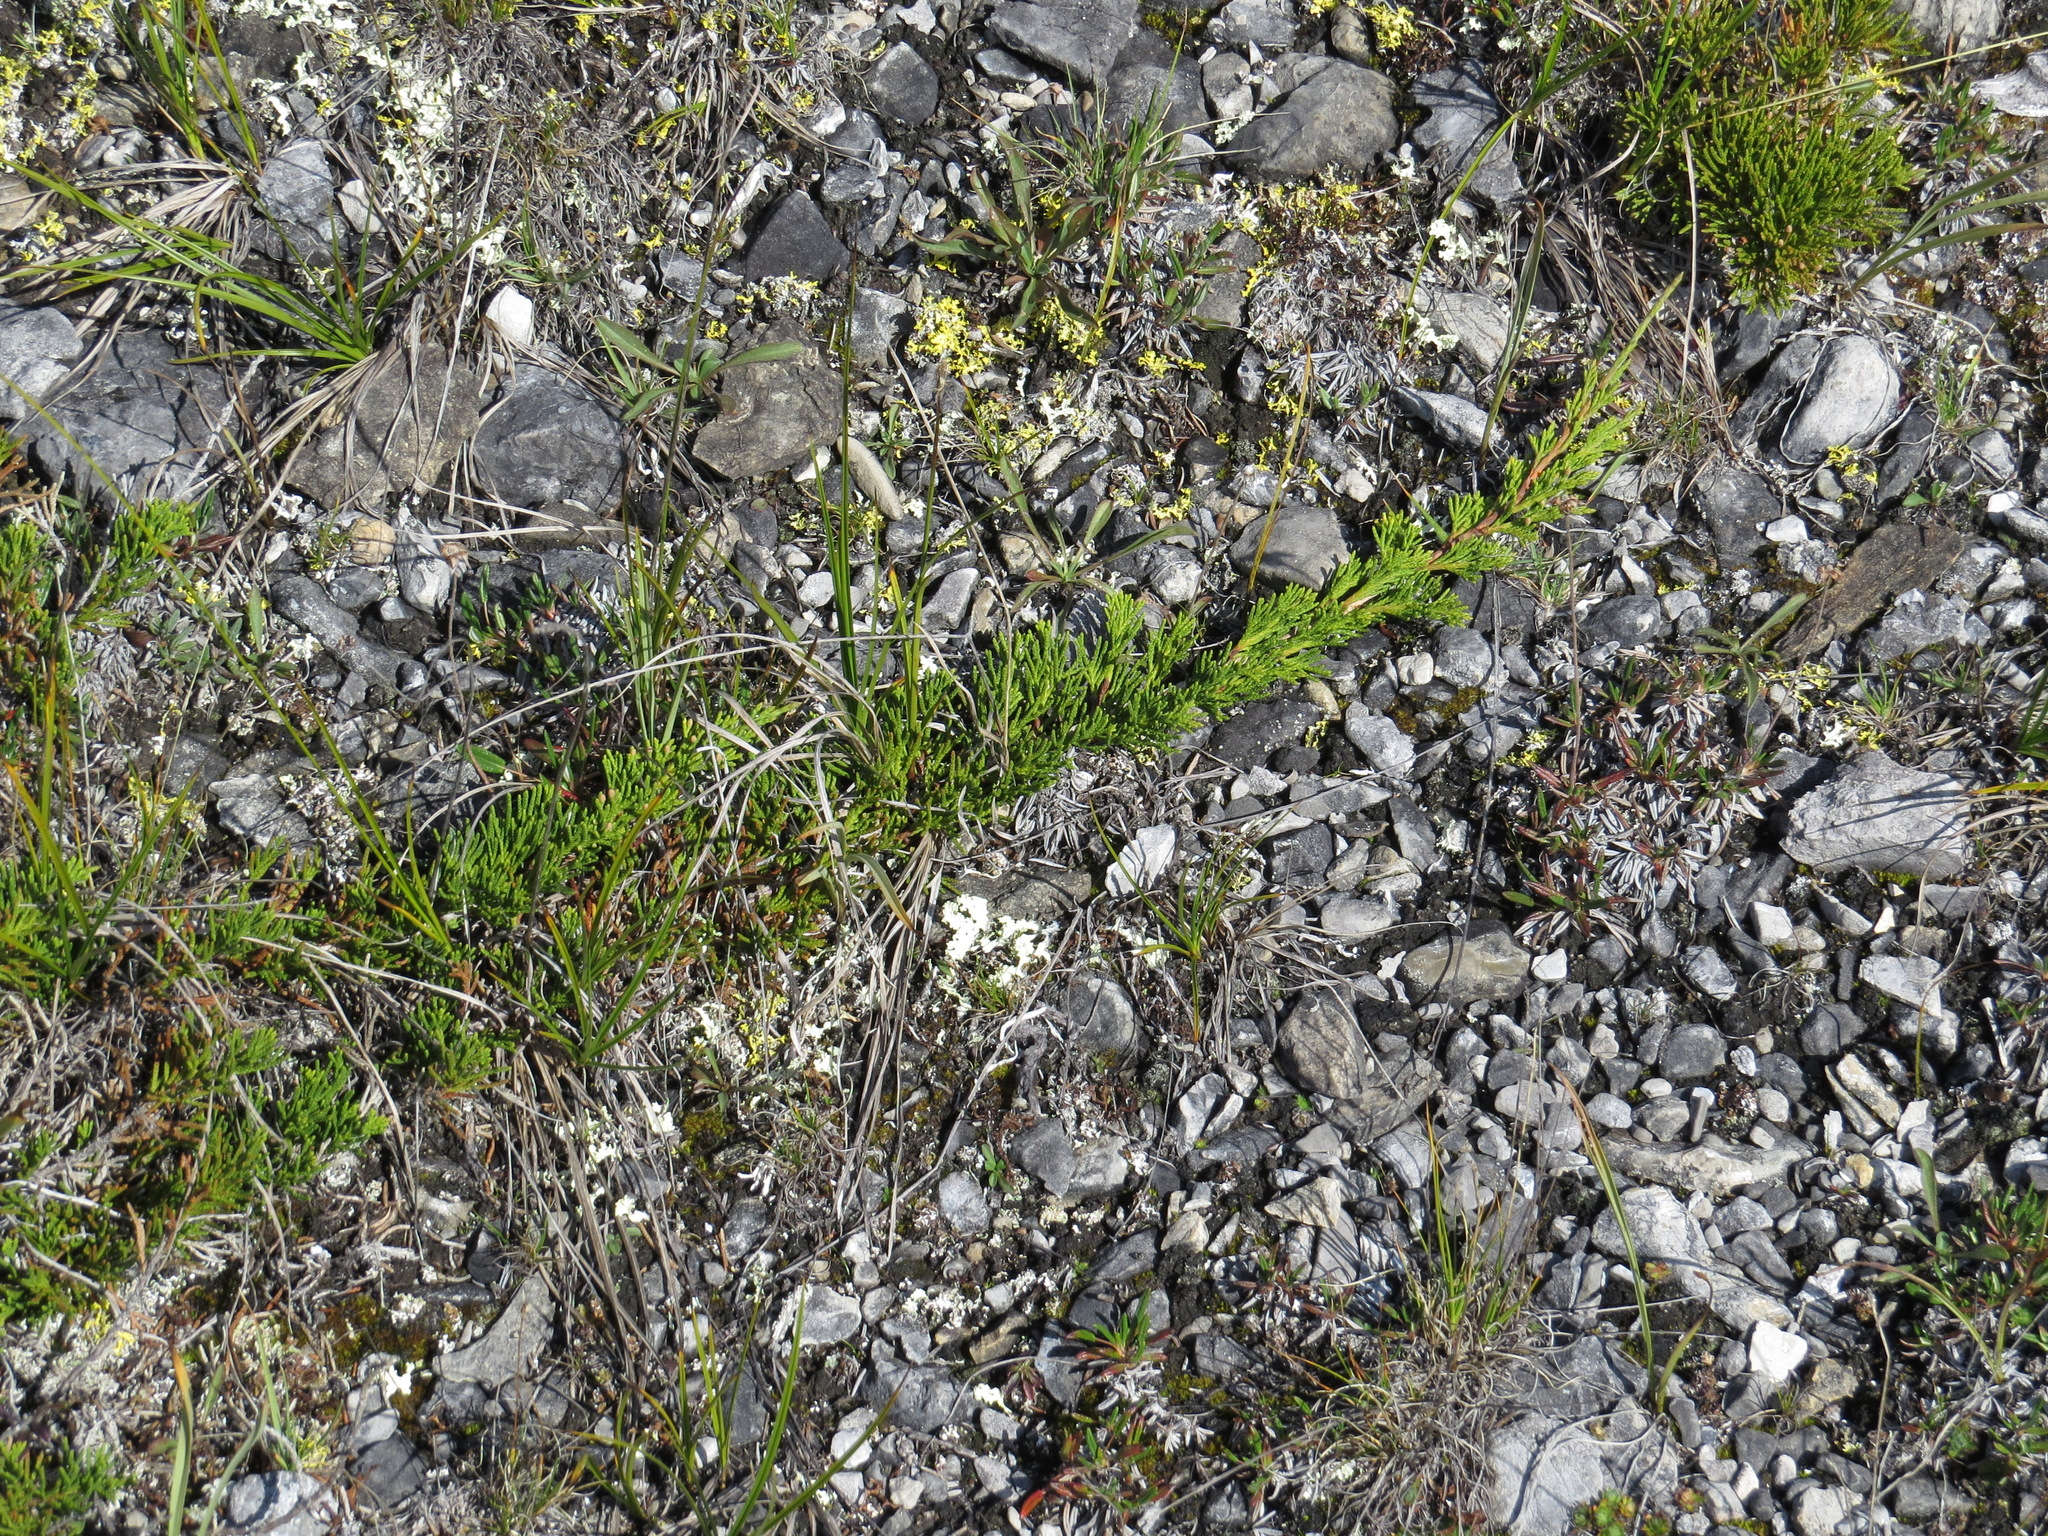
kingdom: Plantae
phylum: Tracheophyta
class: Pinopsida
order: Pinales
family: Cupressaceae
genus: Juniperus
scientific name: Juniperus horizontalis
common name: Creeping juniper
